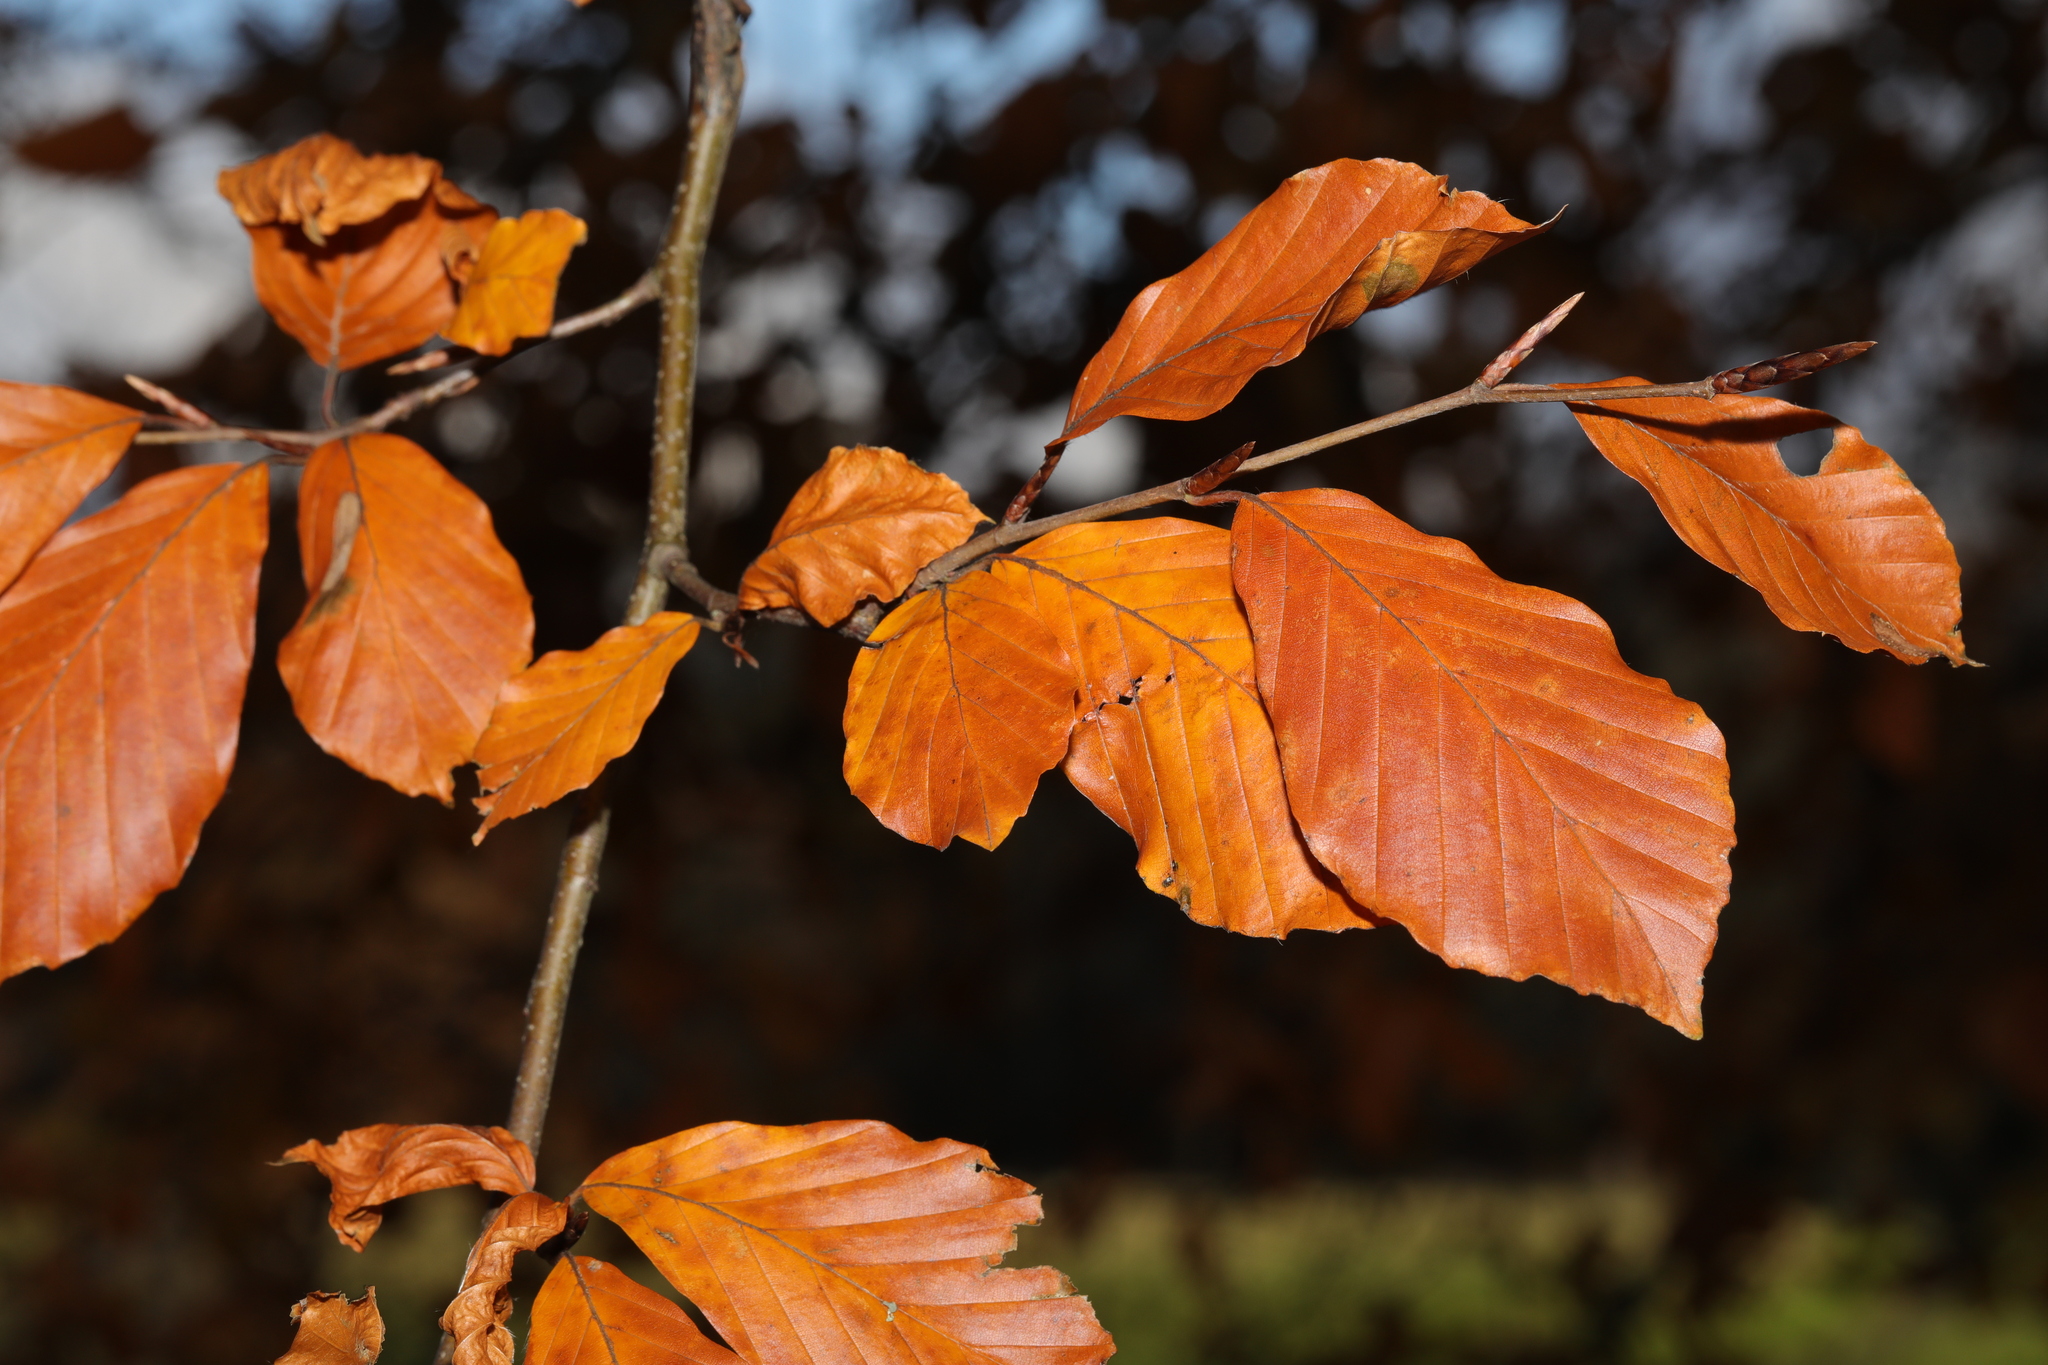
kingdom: Plantae
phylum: Tracheophyta
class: Magnoliopsida
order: Fagales
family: Fagaceae
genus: Fagus
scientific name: Fagus sylvatica
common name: Beech
